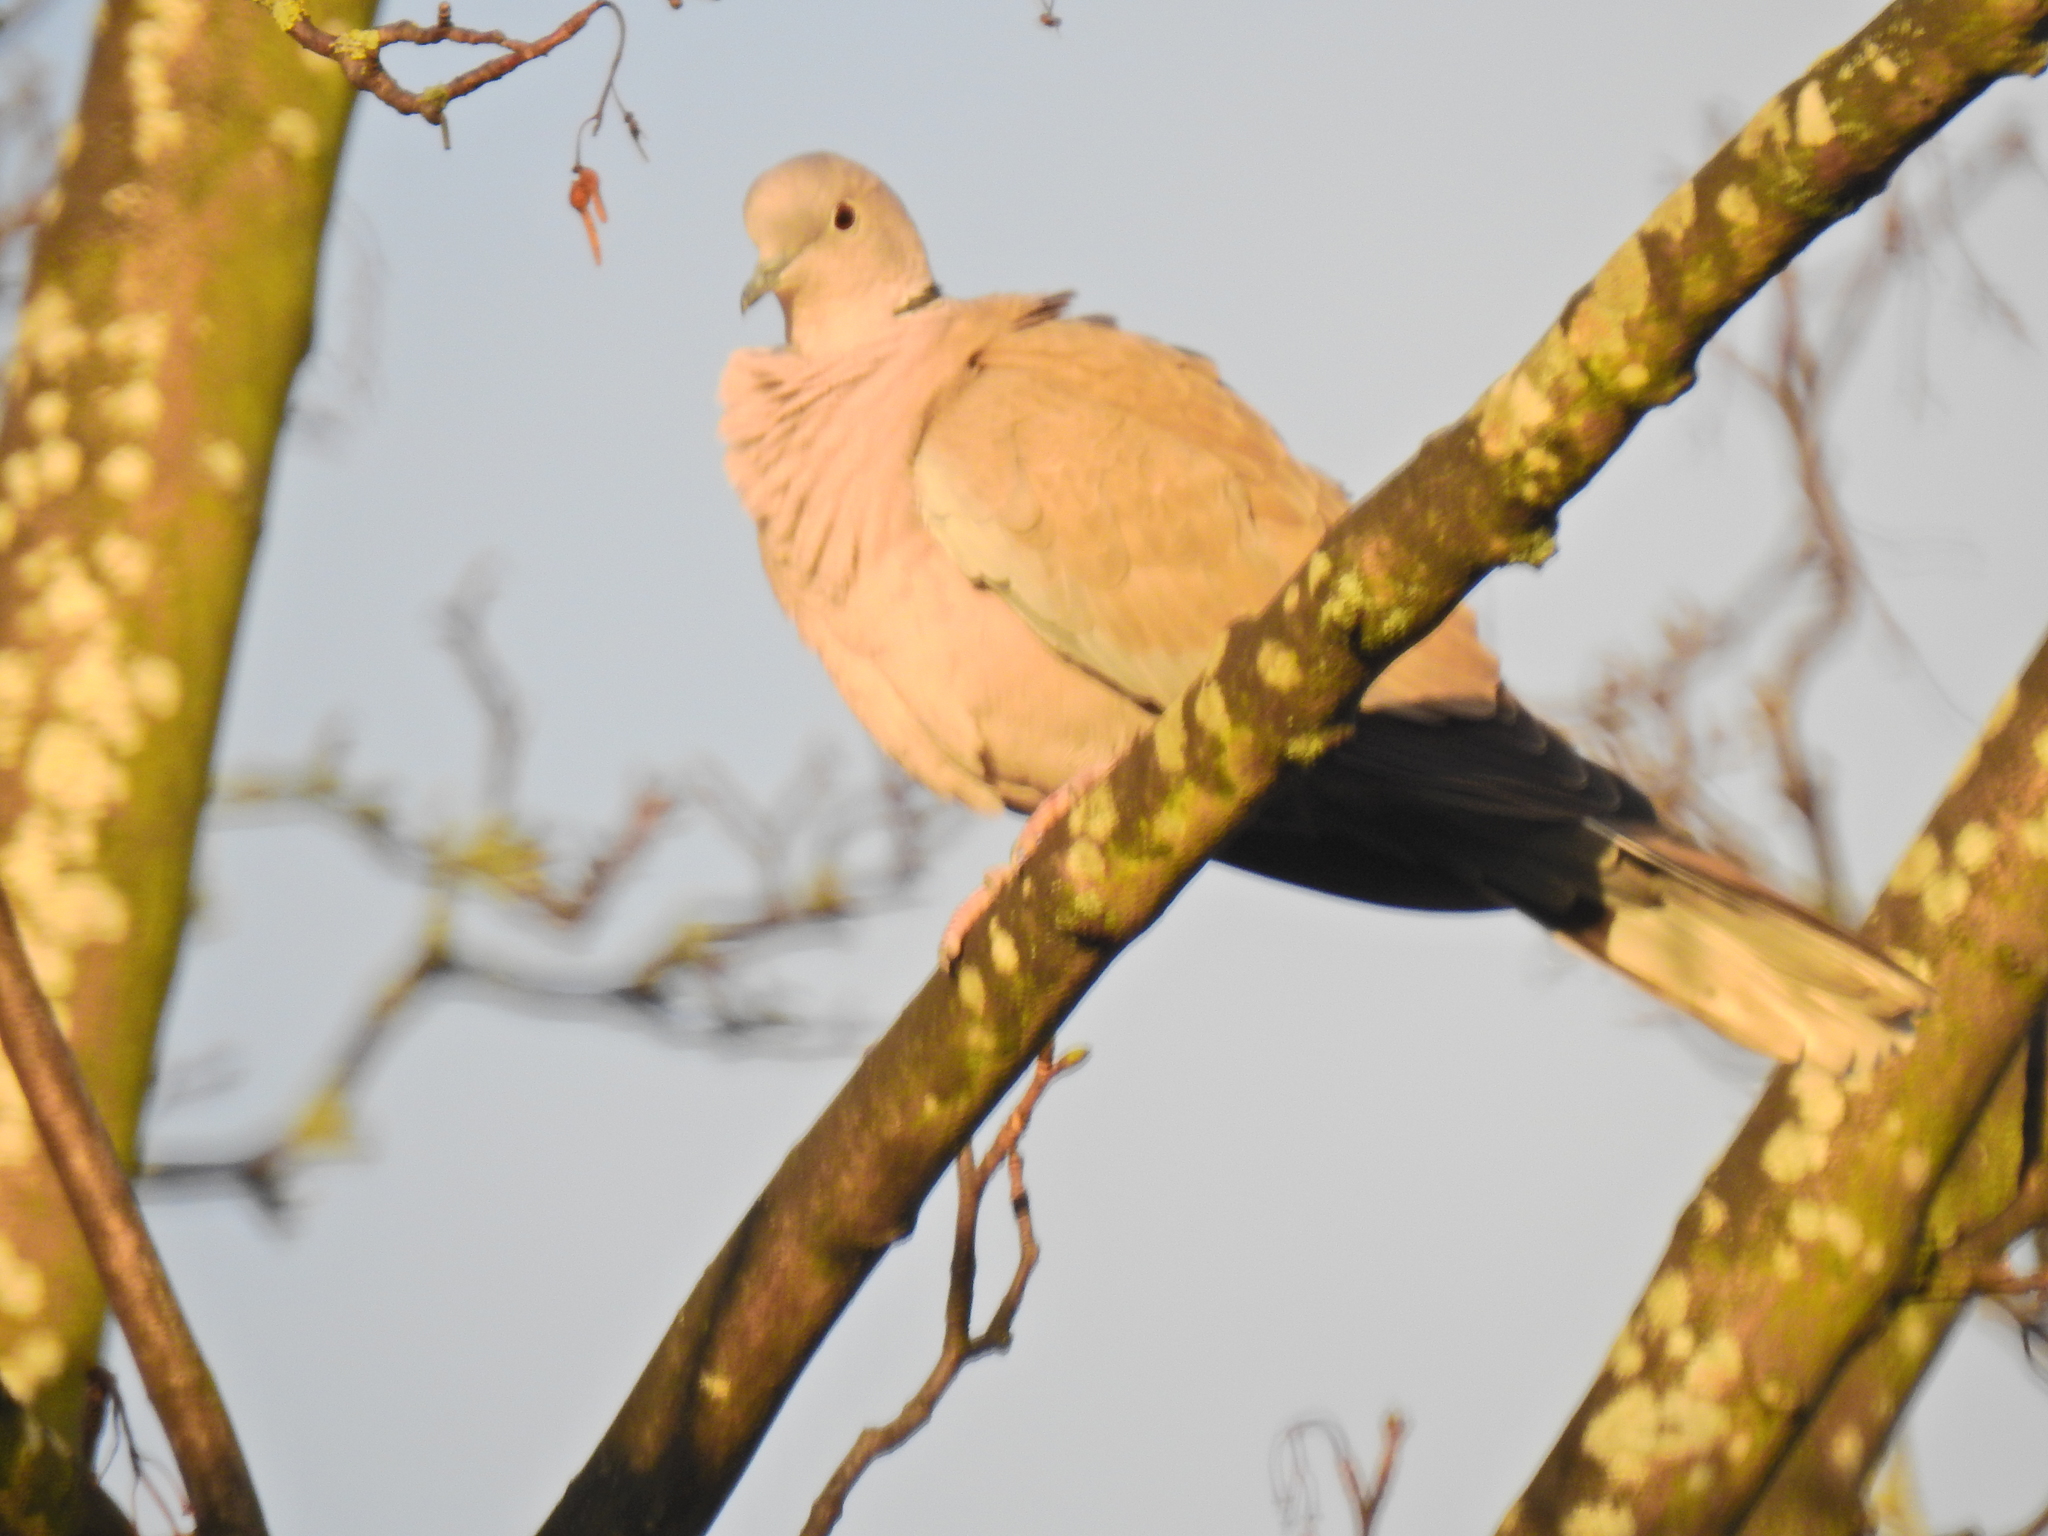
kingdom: Animalia
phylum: Chordata
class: Aves
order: Columbiformes
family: Columbidae
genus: Streptopelia
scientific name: Streptopelia decaocto
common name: Eurasian collared dove
